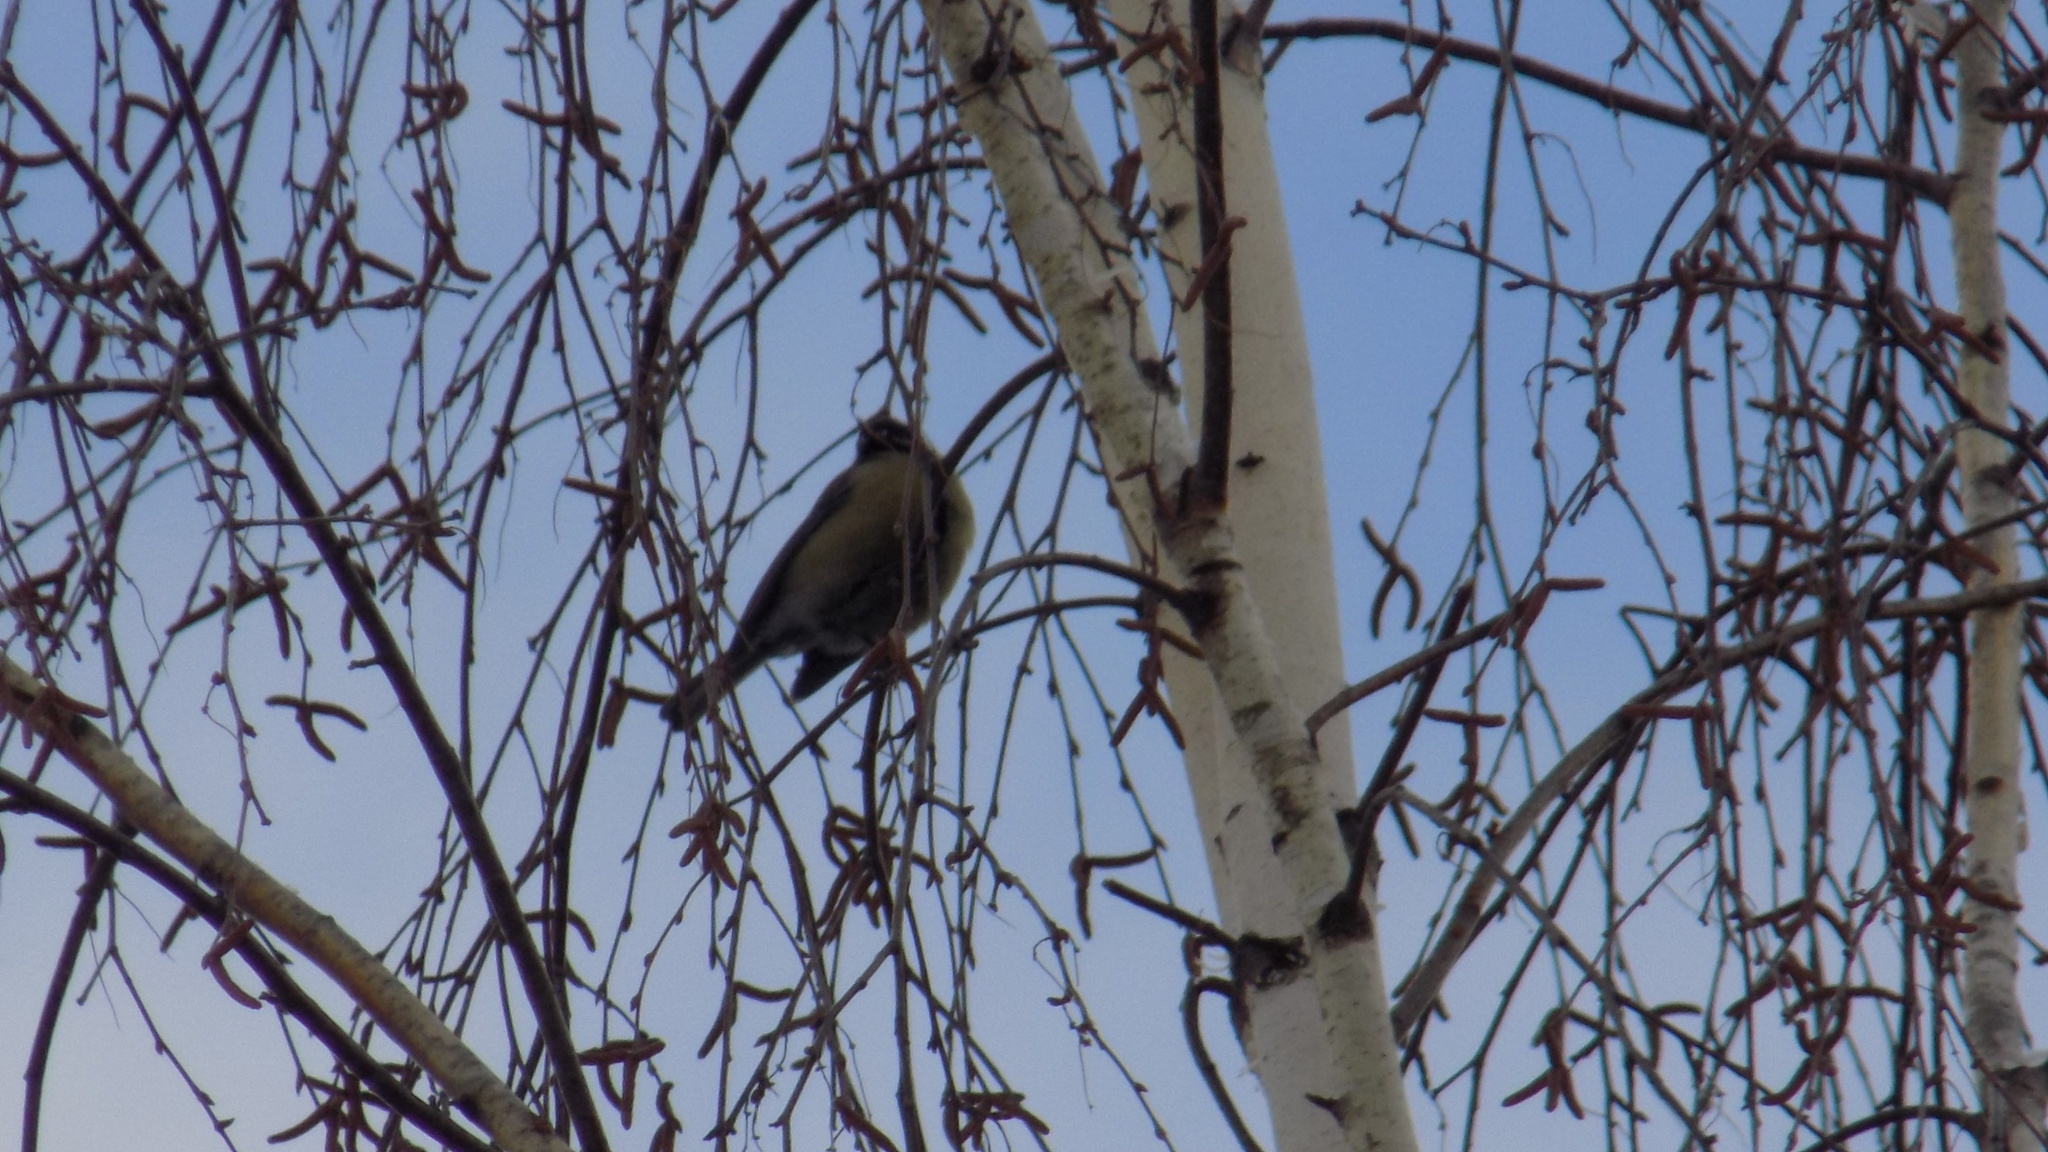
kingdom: Animalia
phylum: Chordata
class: Aves
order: Passeriformes
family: Paridae
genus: Parus
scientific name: Parus major
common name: Great tit
